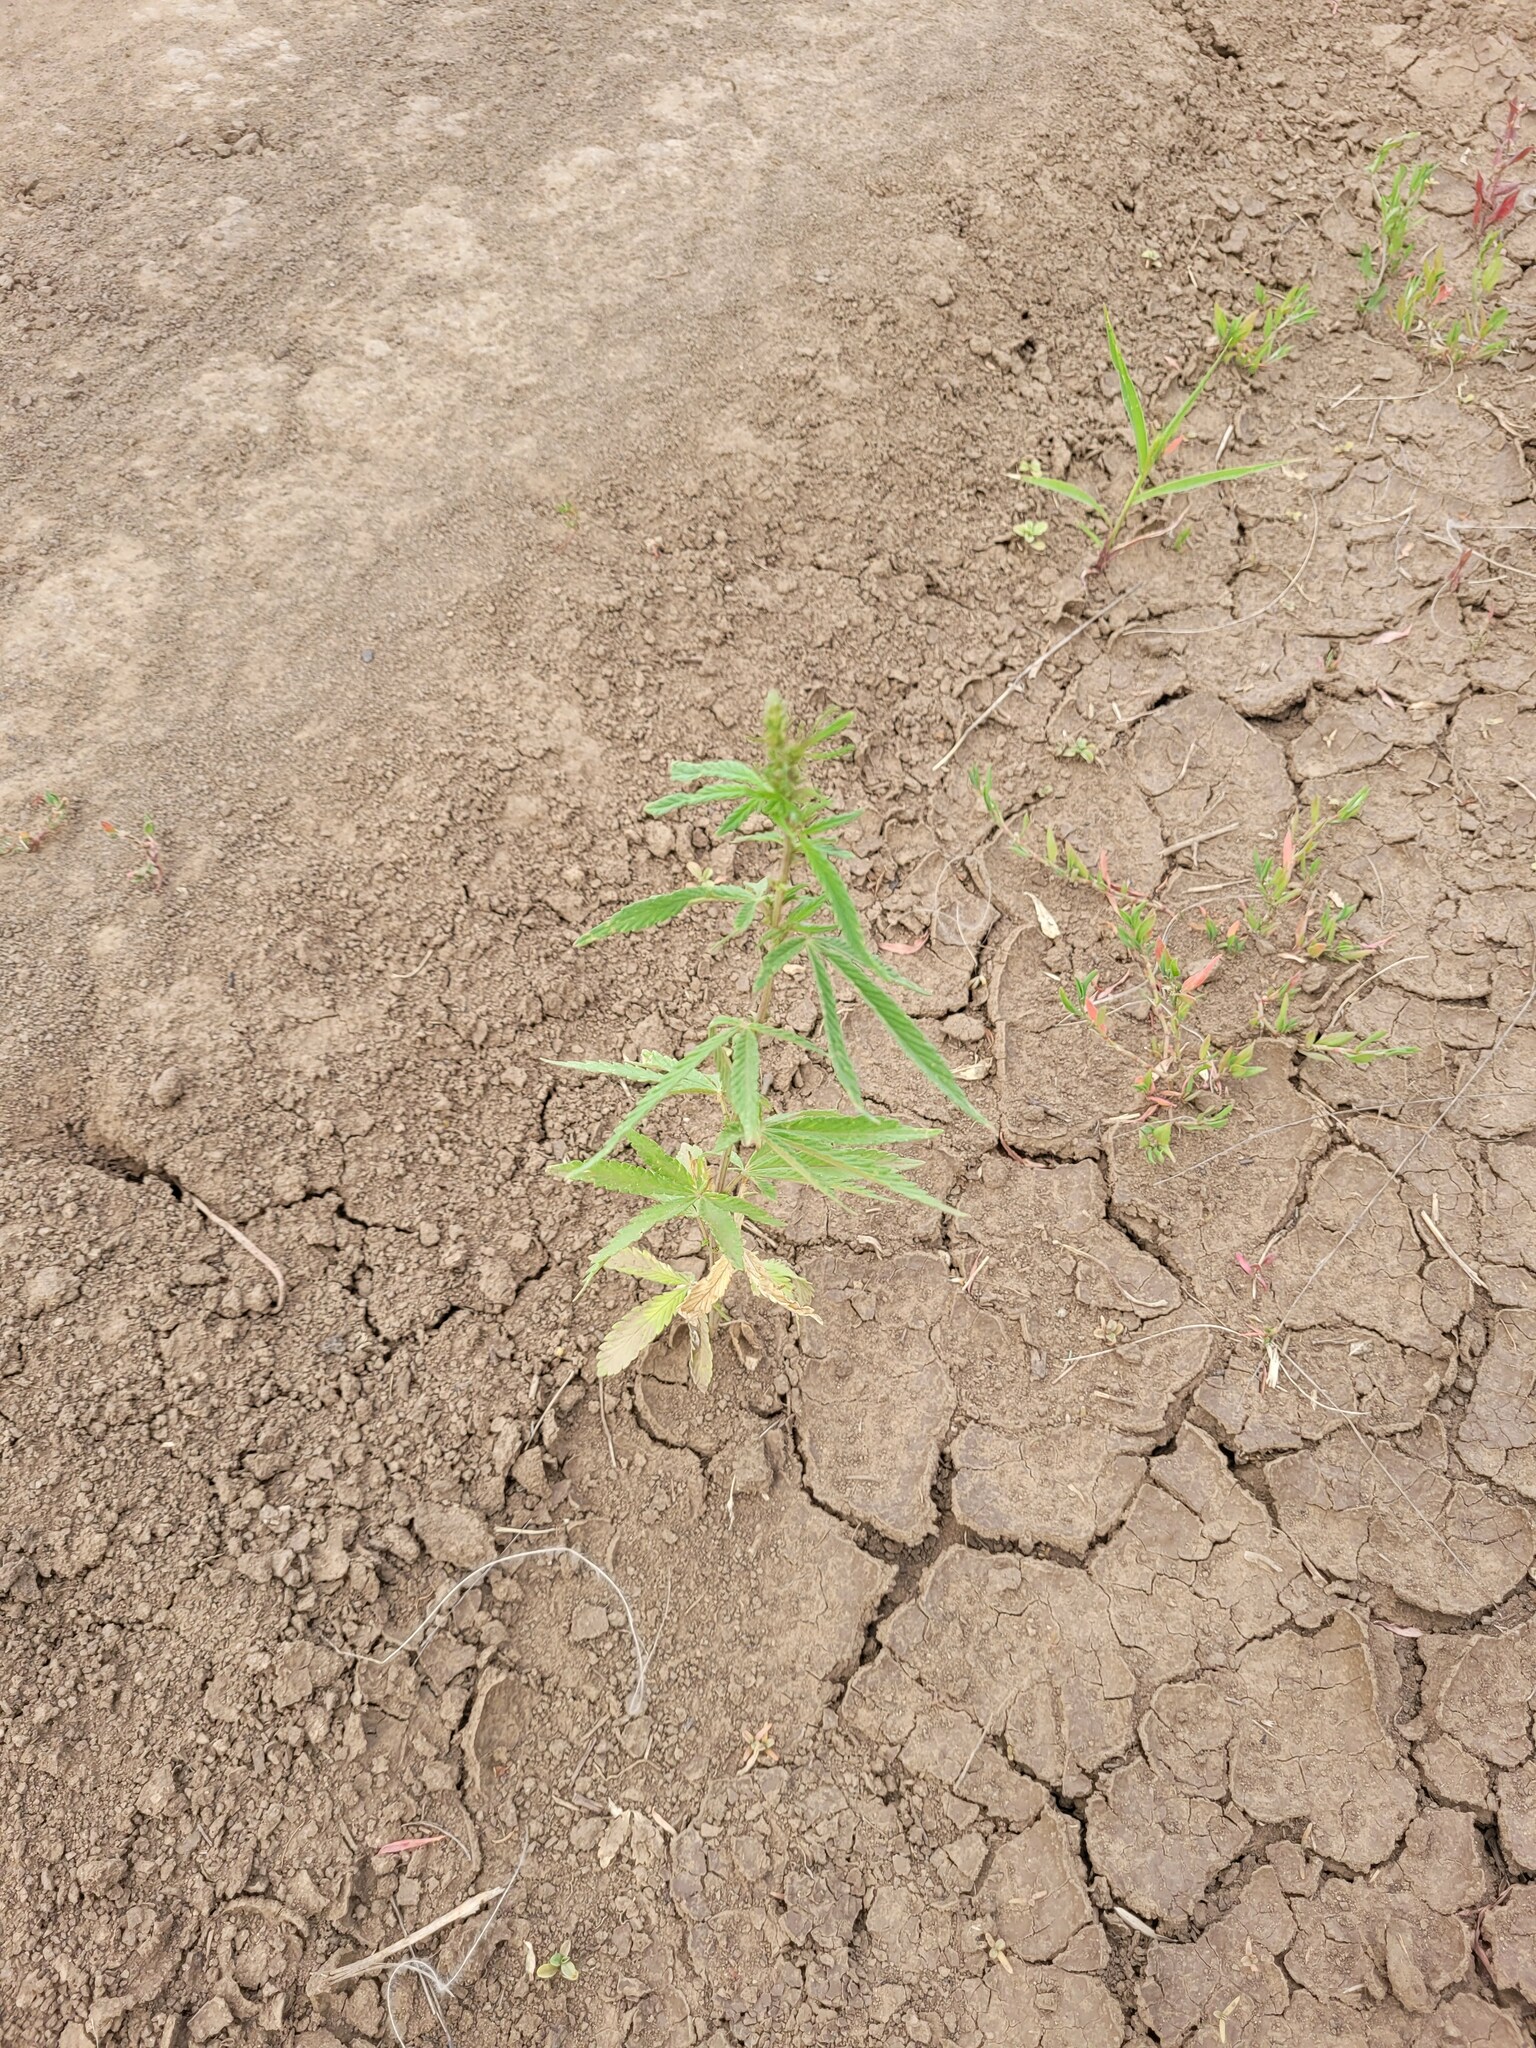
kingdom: Plantae
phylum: Tracheophyta
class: Magnoliopsida
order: Rosales
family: Cannabaceae
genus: Cannabis
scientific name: Cannabis sativa
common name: Hemp
